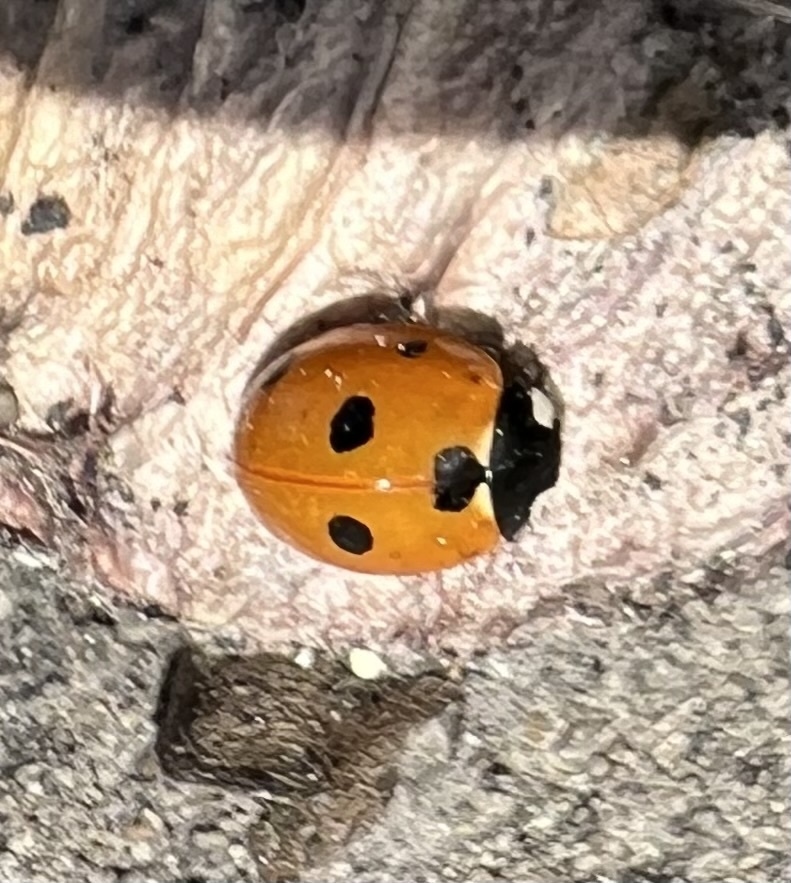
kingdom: Animalia
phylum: Arthropoda
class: Insecta
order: Coleoptera
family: Coccinellidae
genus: Coccinella
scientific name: Coccinella septempunctata
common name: Sevenspotted lady beetle
